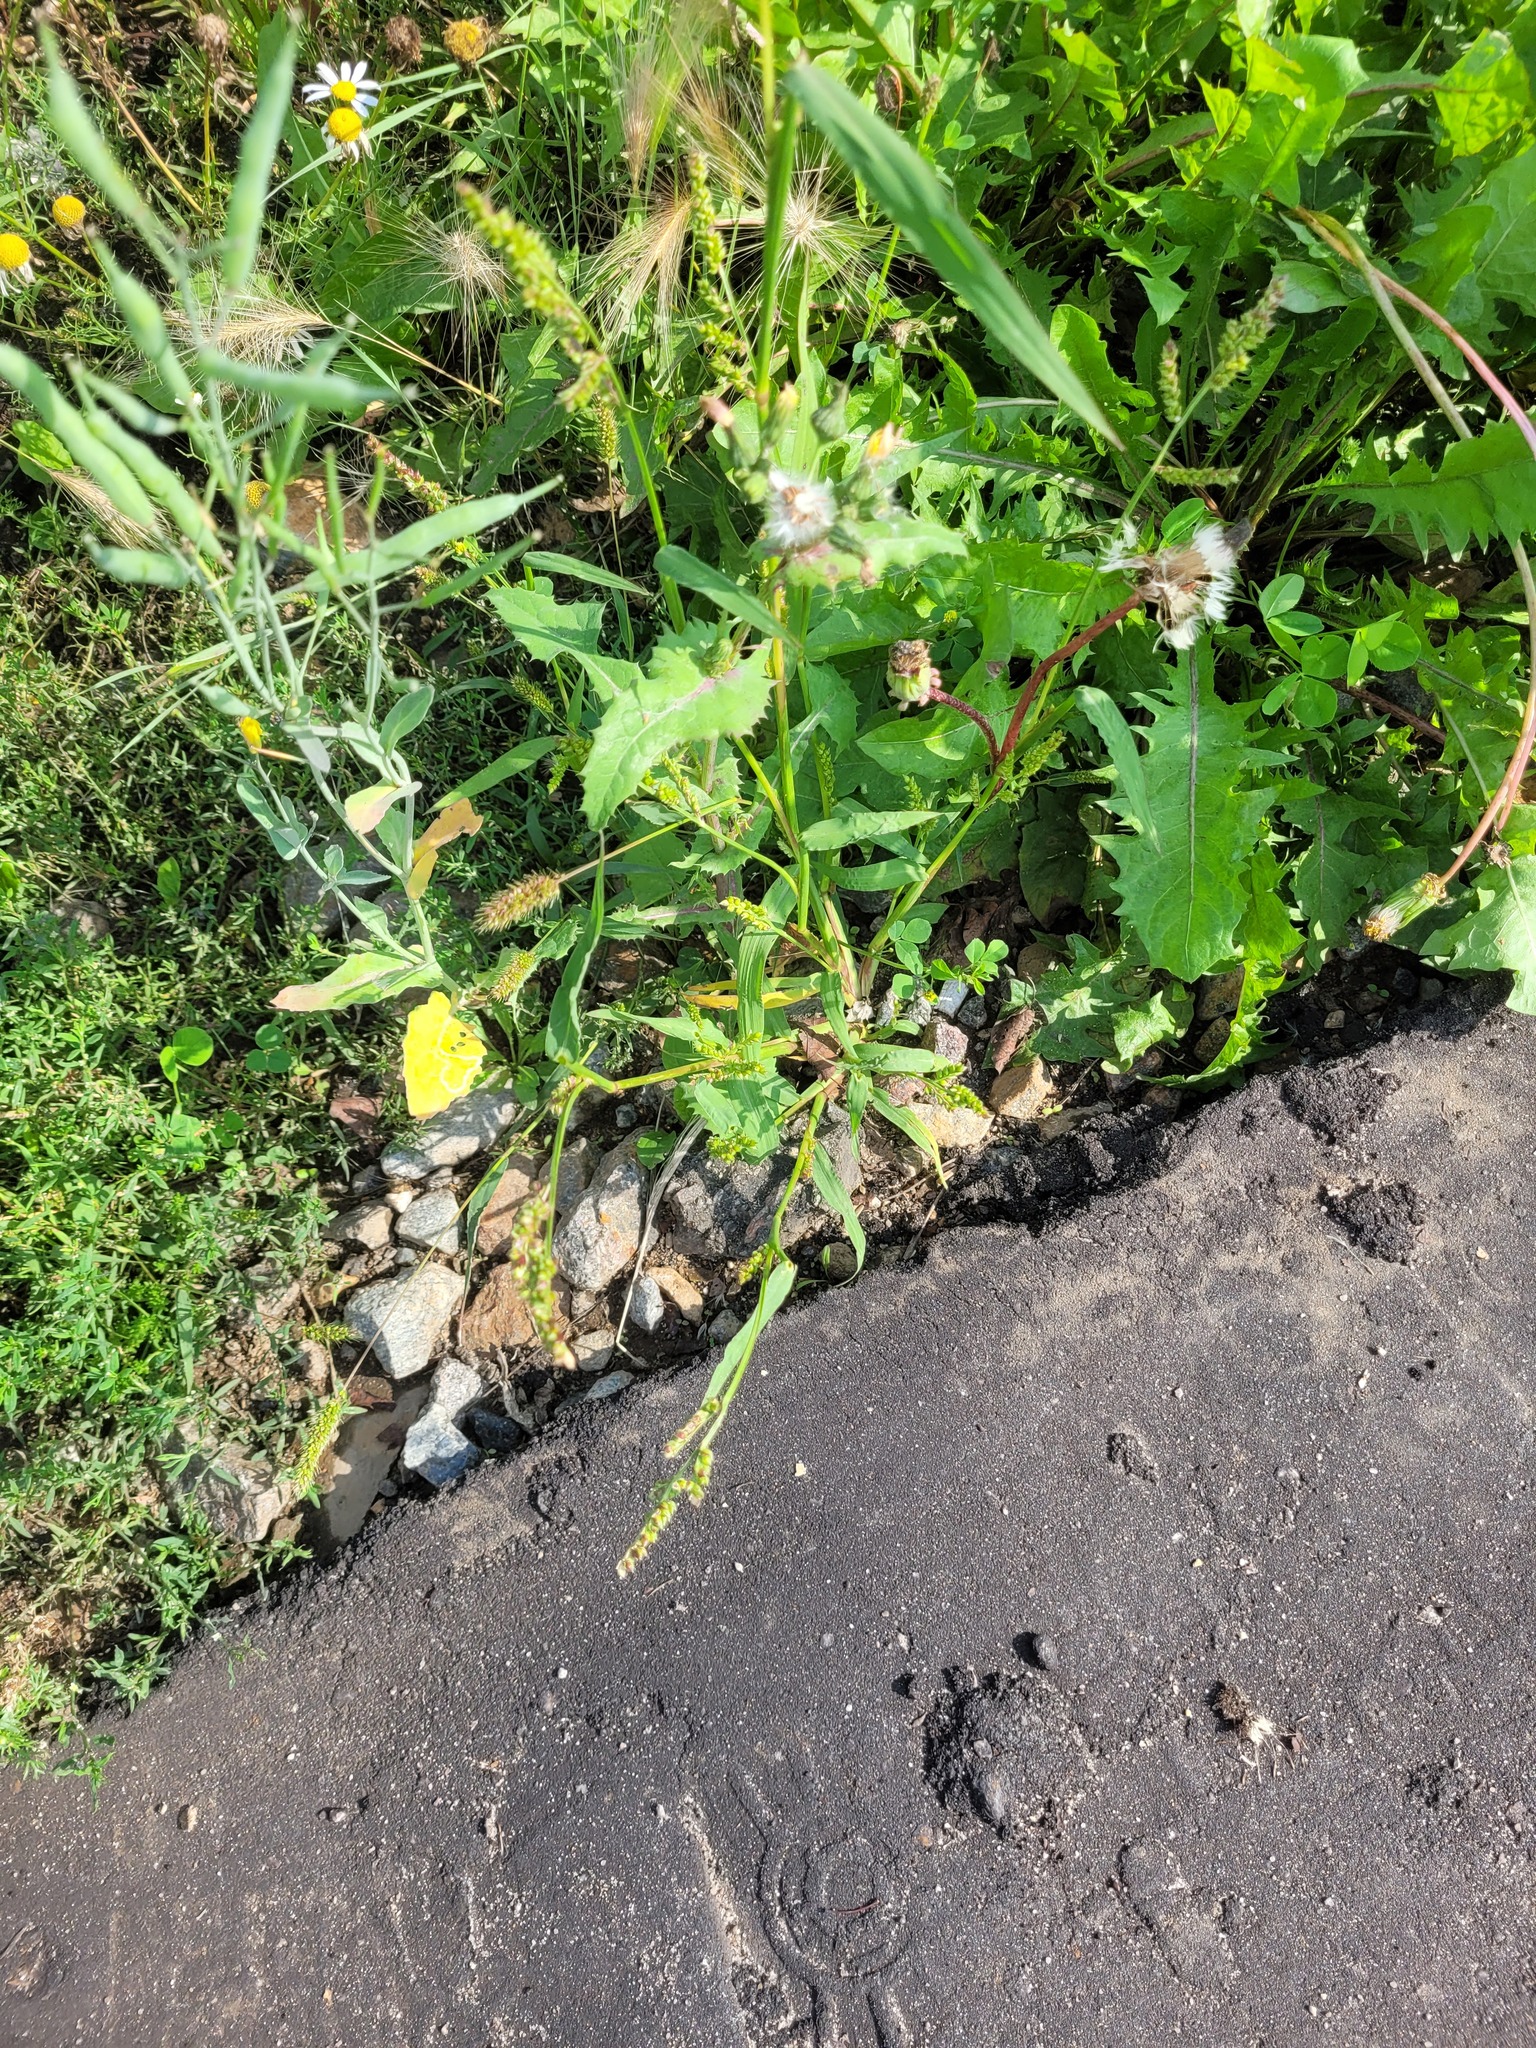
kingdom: Plantae
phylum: Tracheophyta
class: Liliopsida
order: Poales
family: Poaceae
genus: Echinochloa
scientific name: Echinochloa crus-galli
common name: Cockspur
